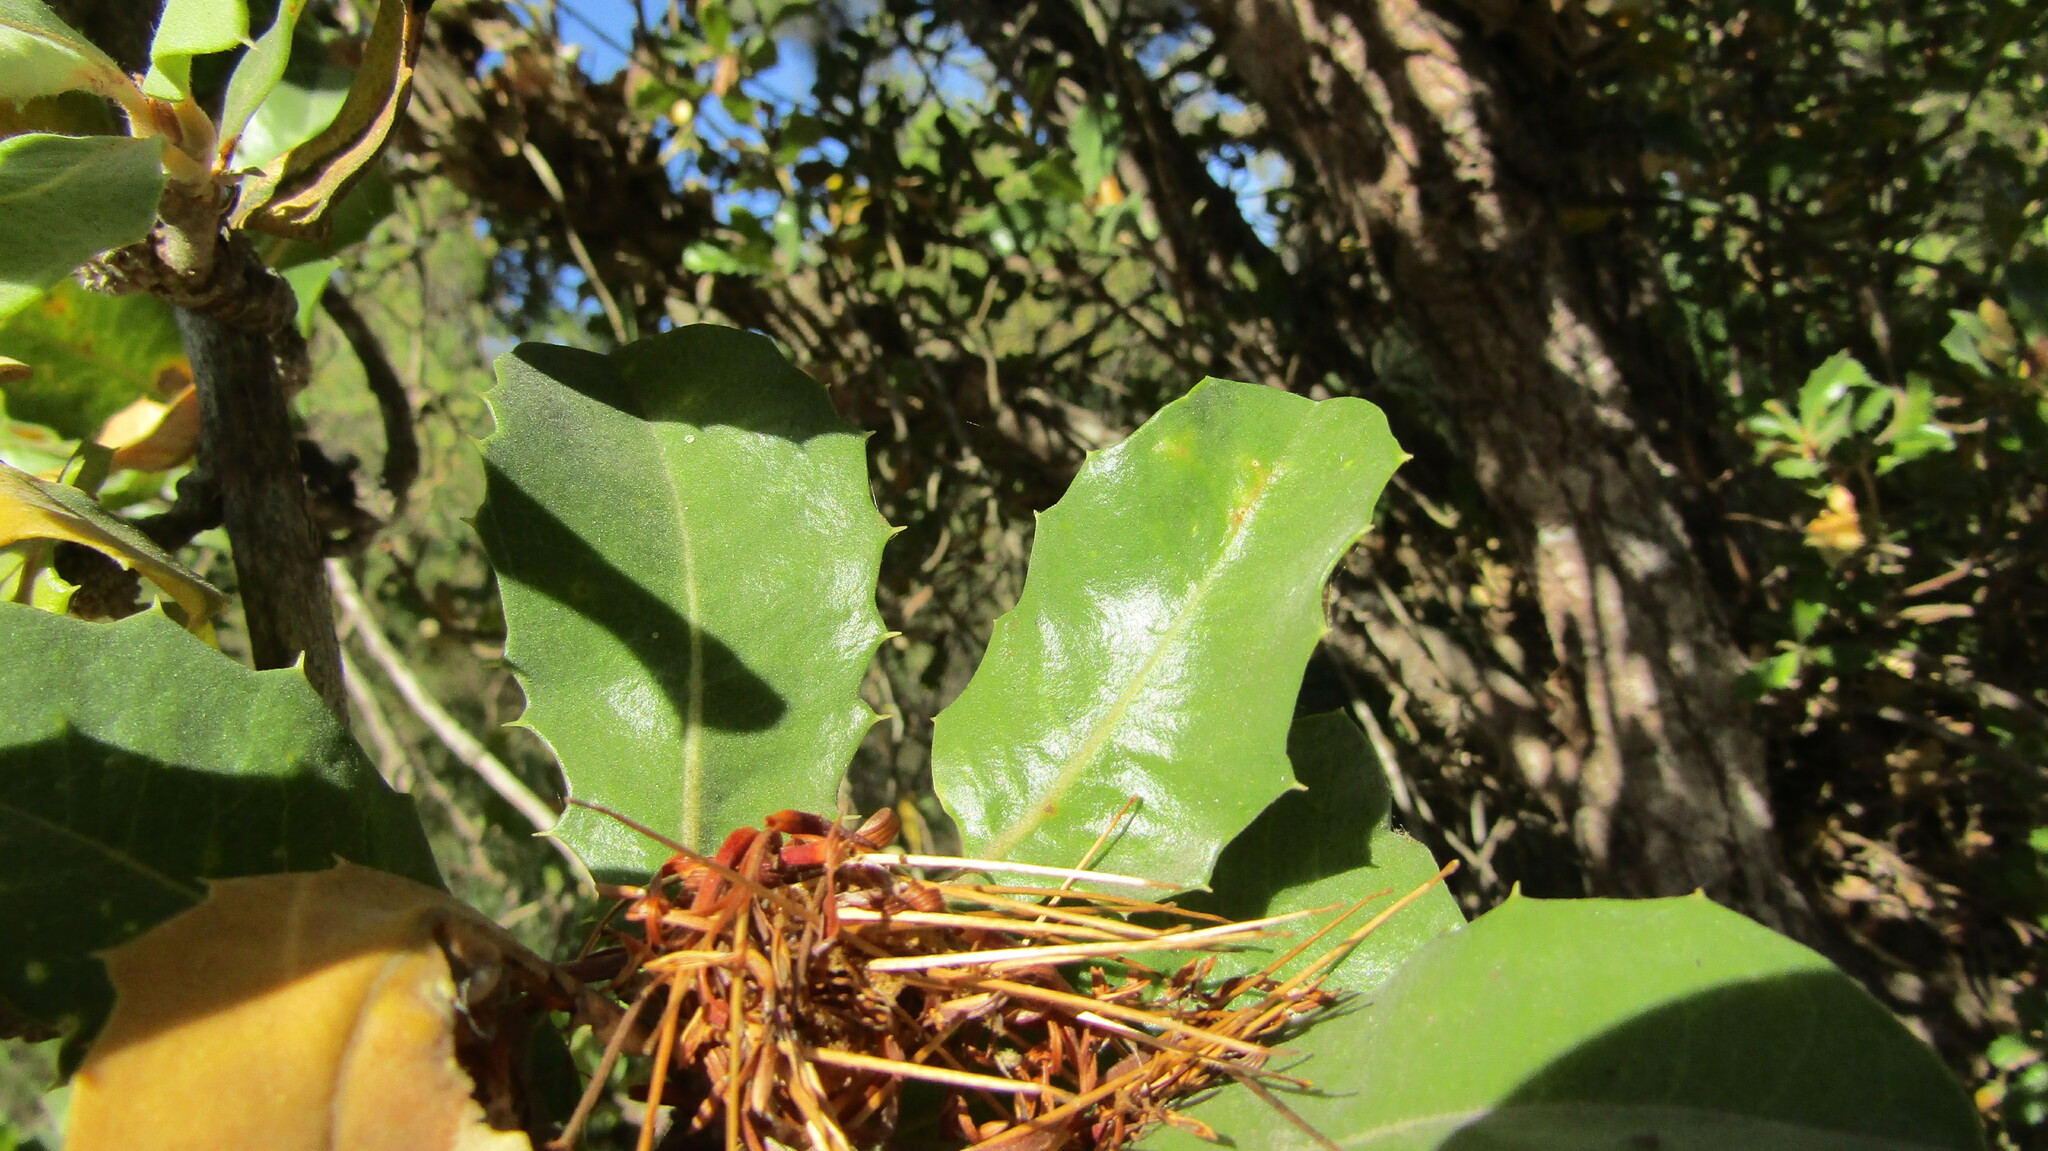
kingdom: Plantae
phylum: Tracheophyta
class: Magnoliopsida
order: Proteales
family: Proteaceae
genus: Banksia
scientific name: Banksia ilicifolia
